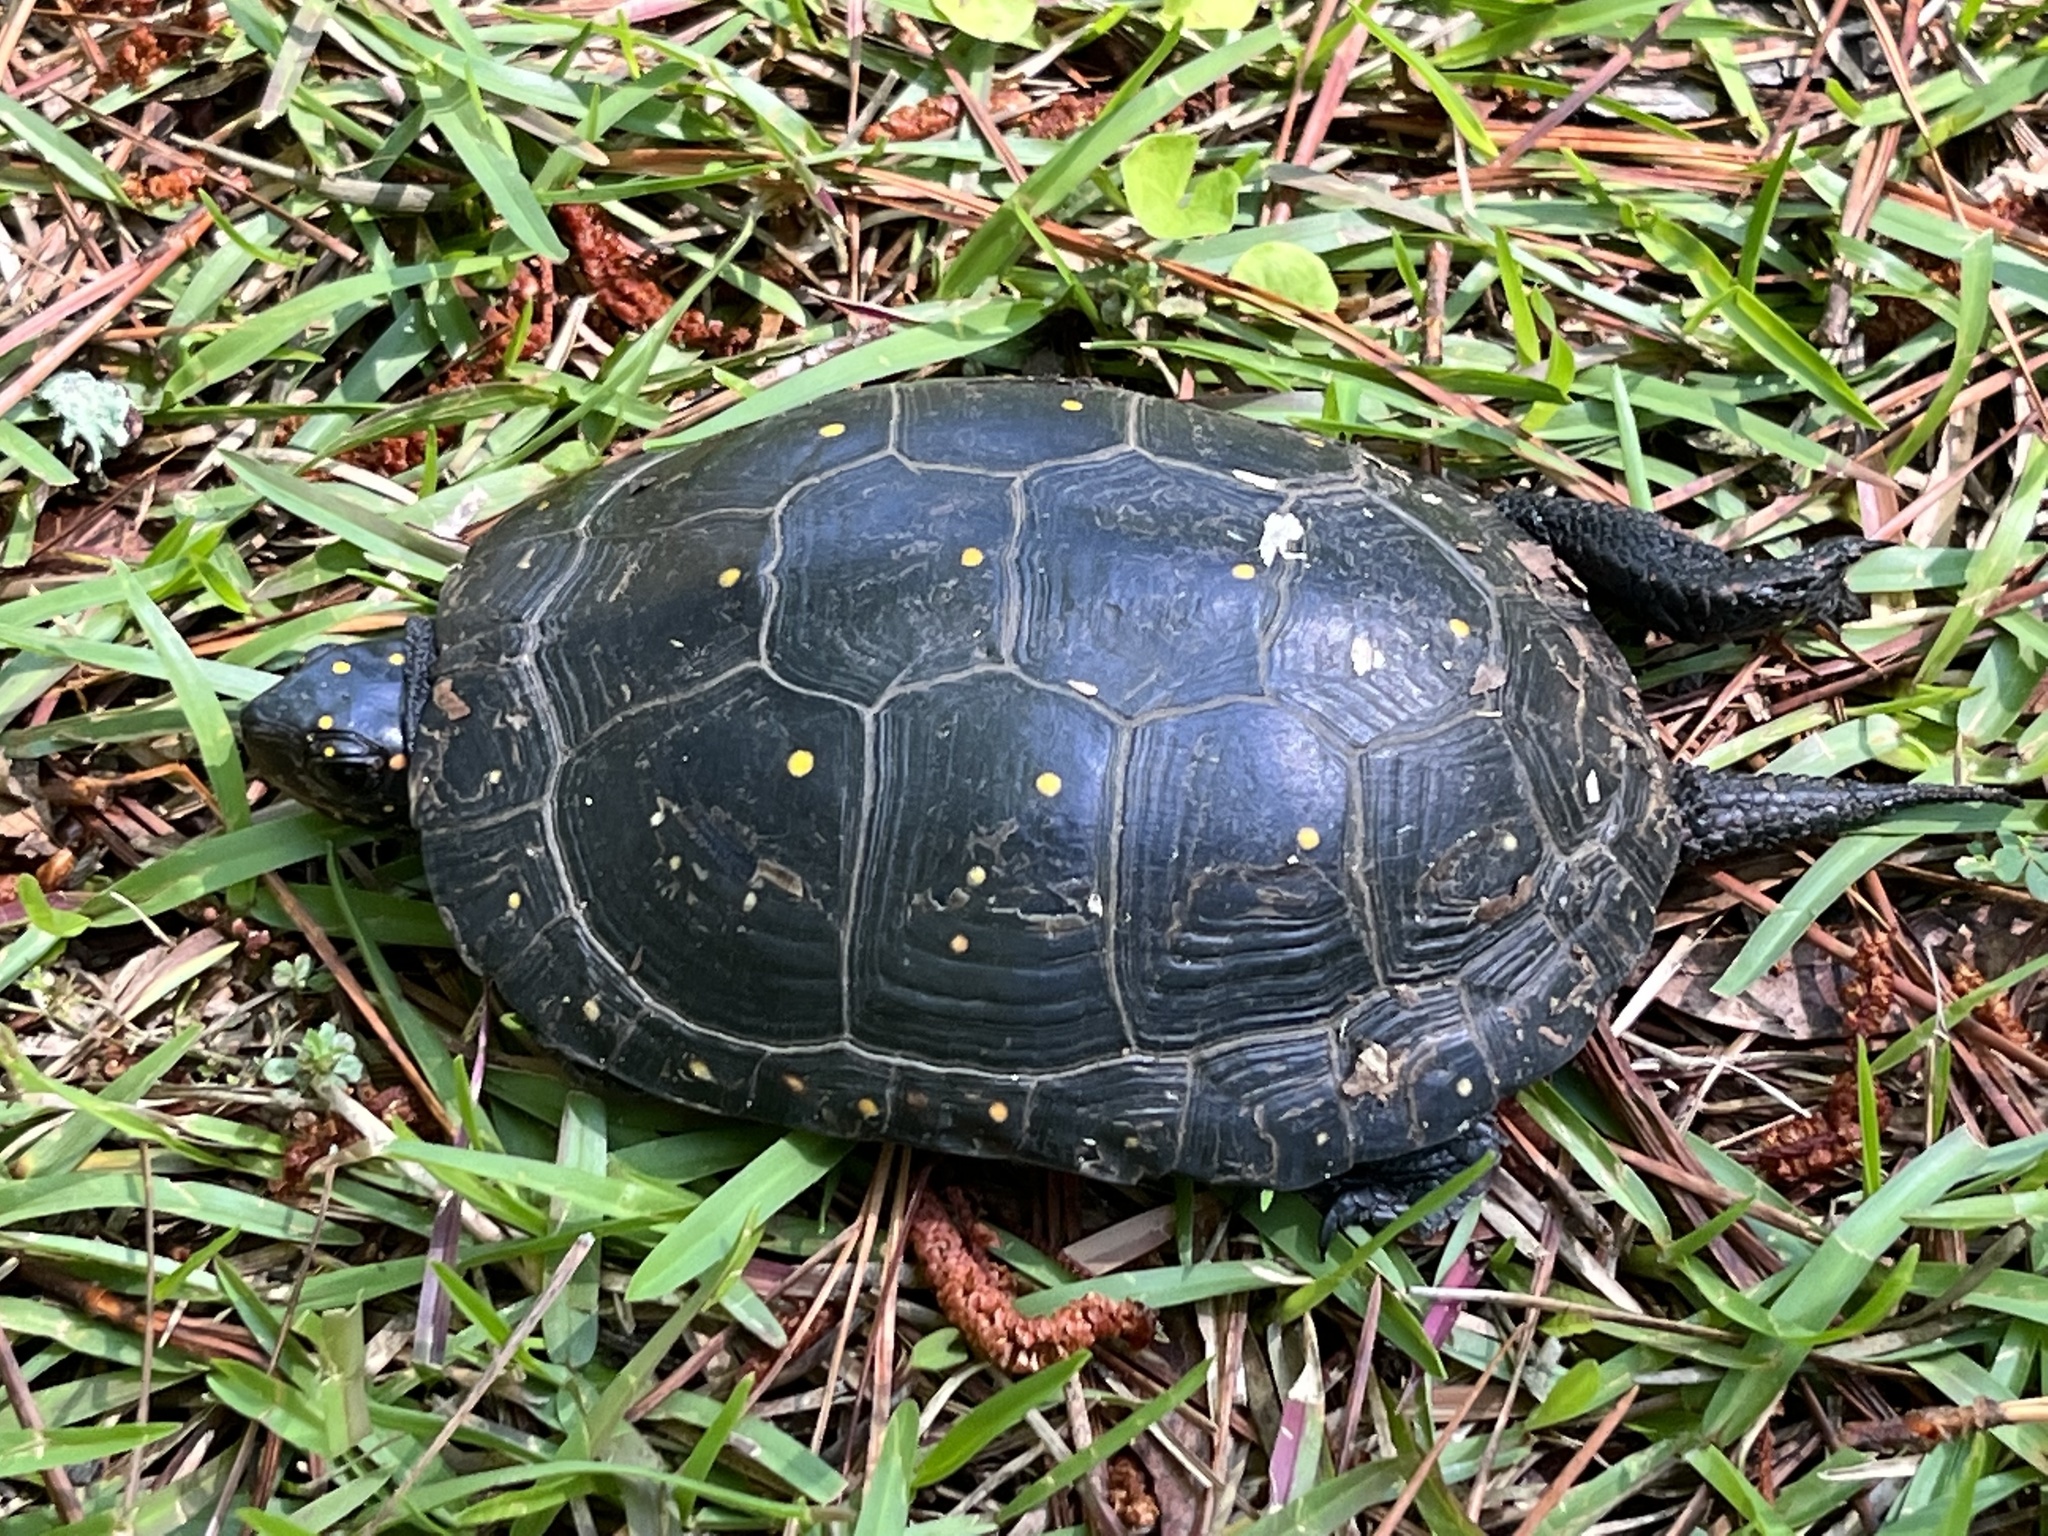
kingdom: Animalia
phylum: Chordata
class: Testudines
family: Emydidae
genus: Clemmys
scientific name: Clemmys guttata
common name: Spotted turtle
